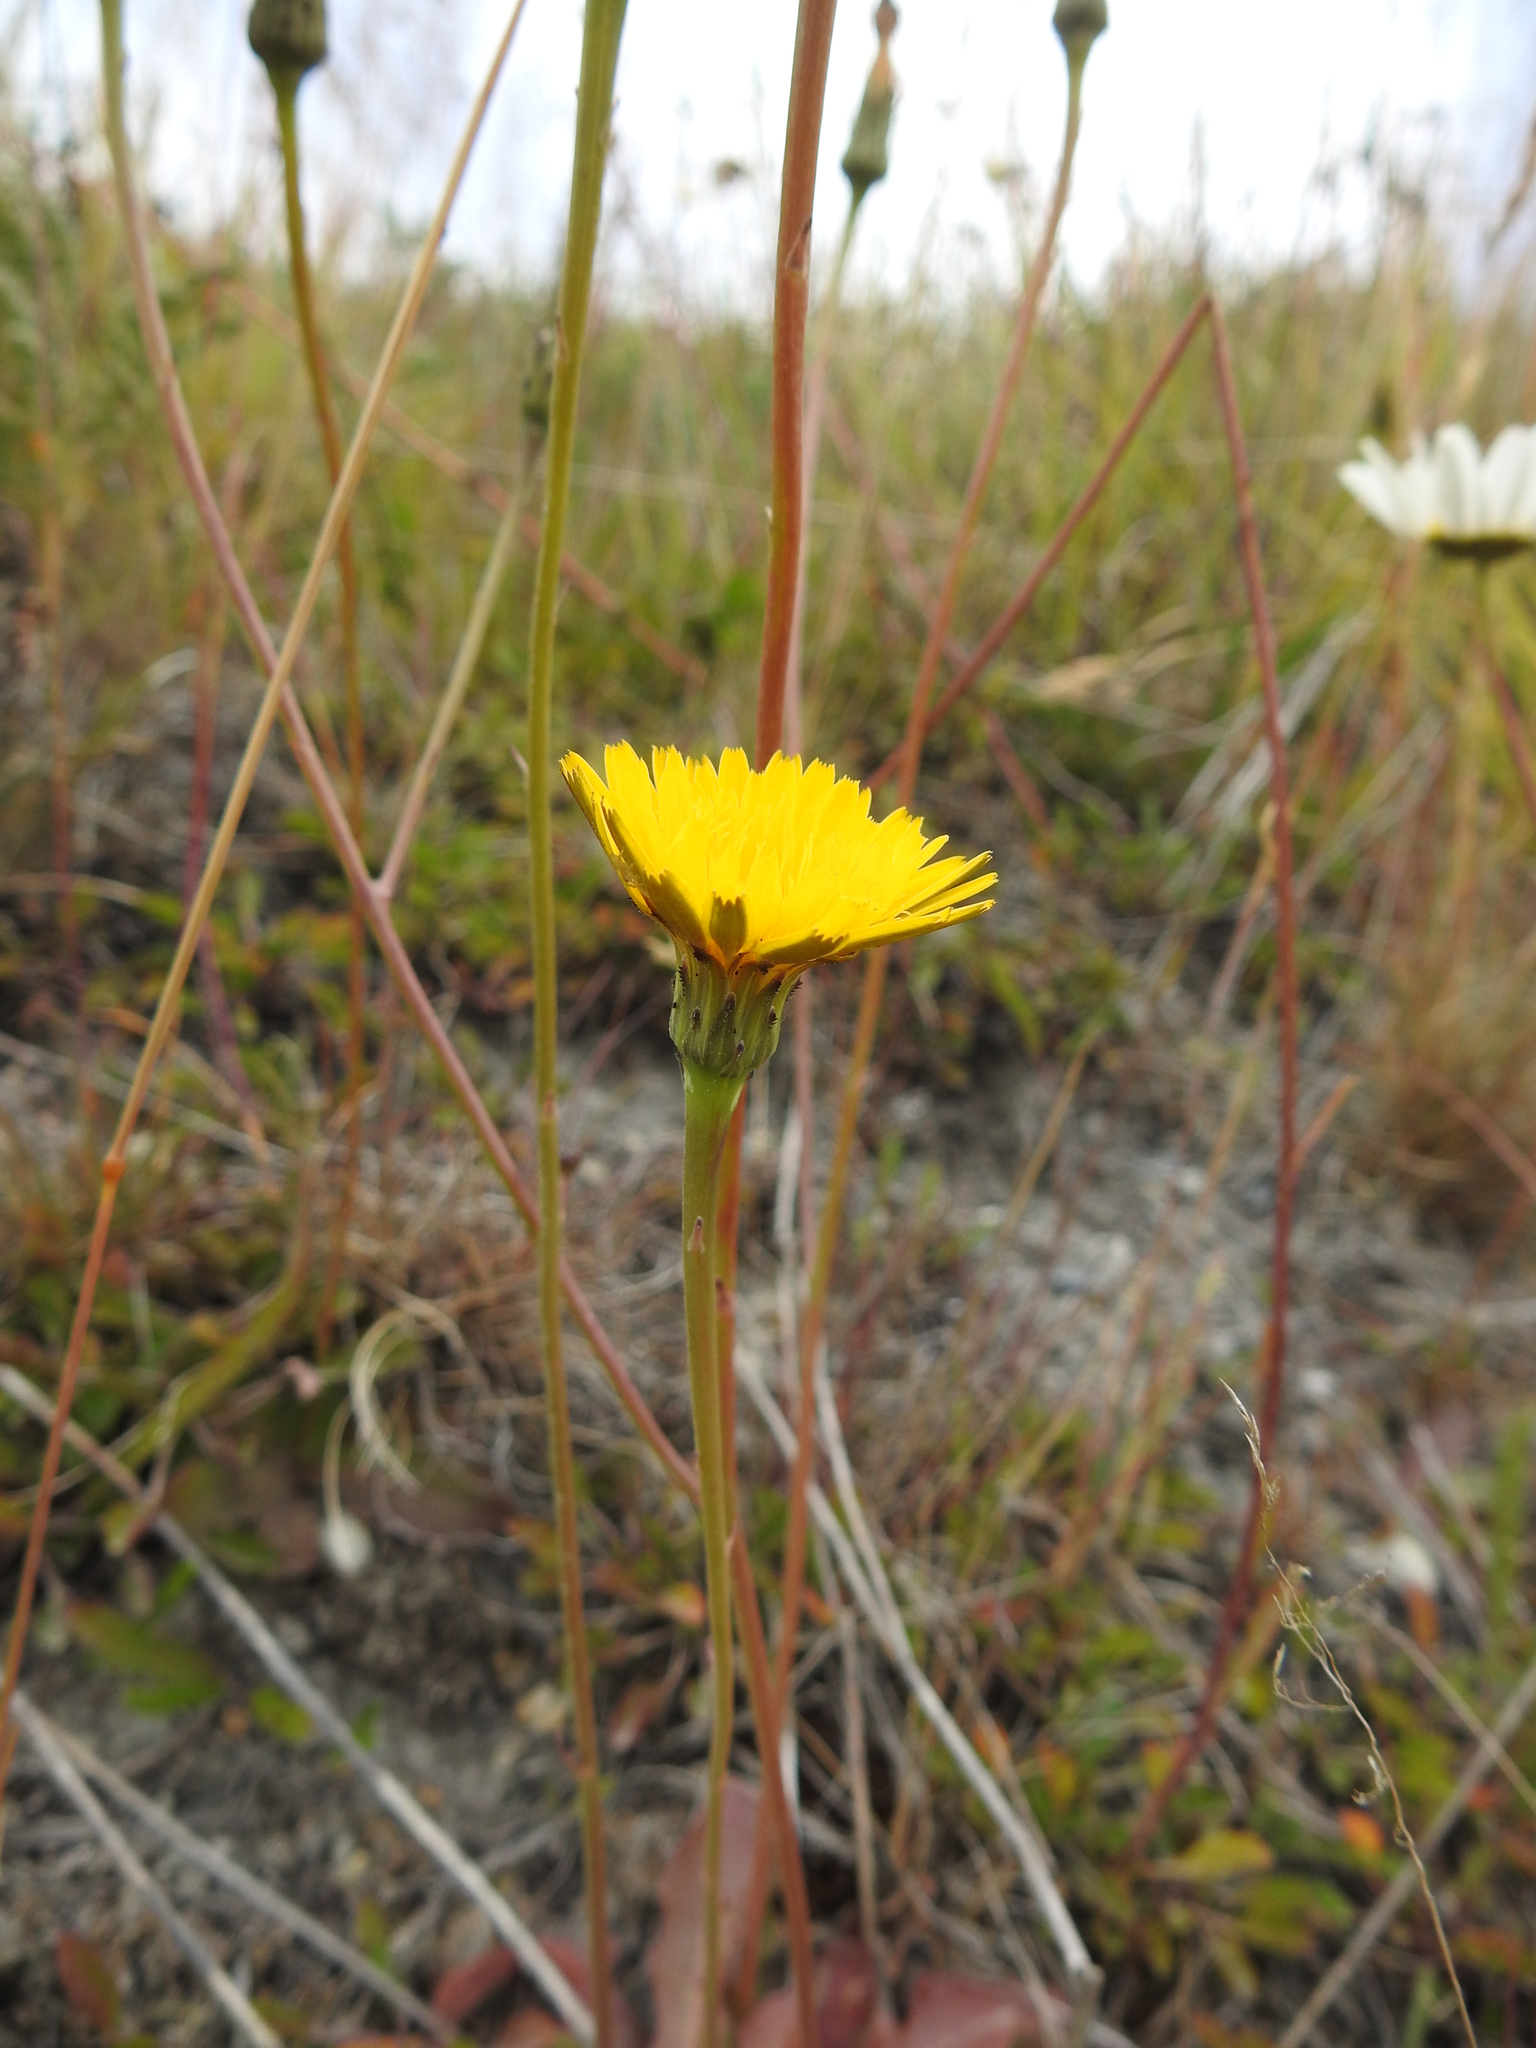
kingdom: Plantae
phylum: Tracheophyta
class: Magnoliopsida
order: Asterales
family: Asteraceae
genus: Hypochaeris
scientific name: Hypochaeris radicata
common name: Flatweed
